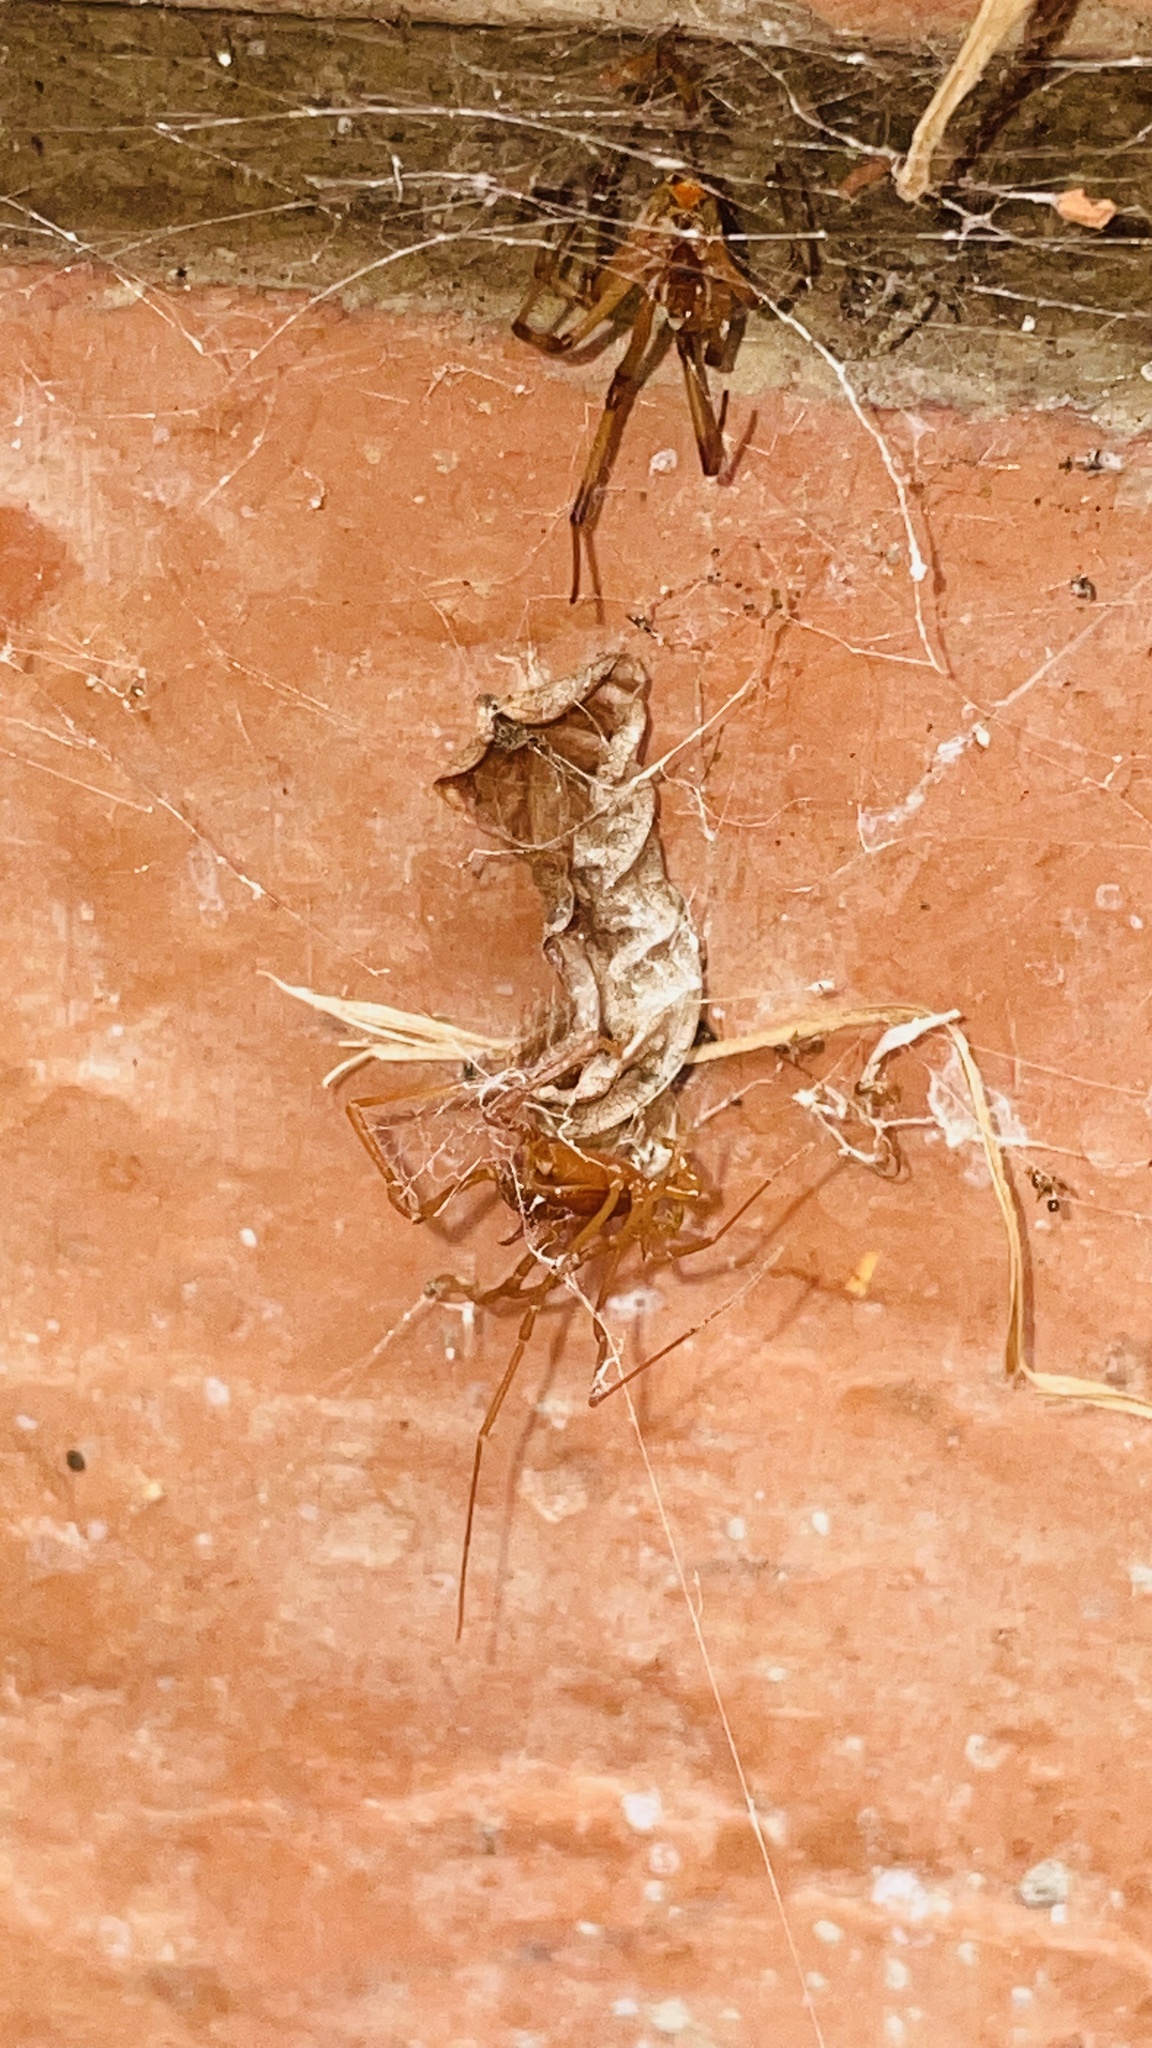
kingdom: Animalia
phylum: Arthropoda
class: Arachnida
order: Araneae
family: Theridiidae
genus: Latrodectus
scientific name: Latrodectus geometricus
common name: Brown widow spider
